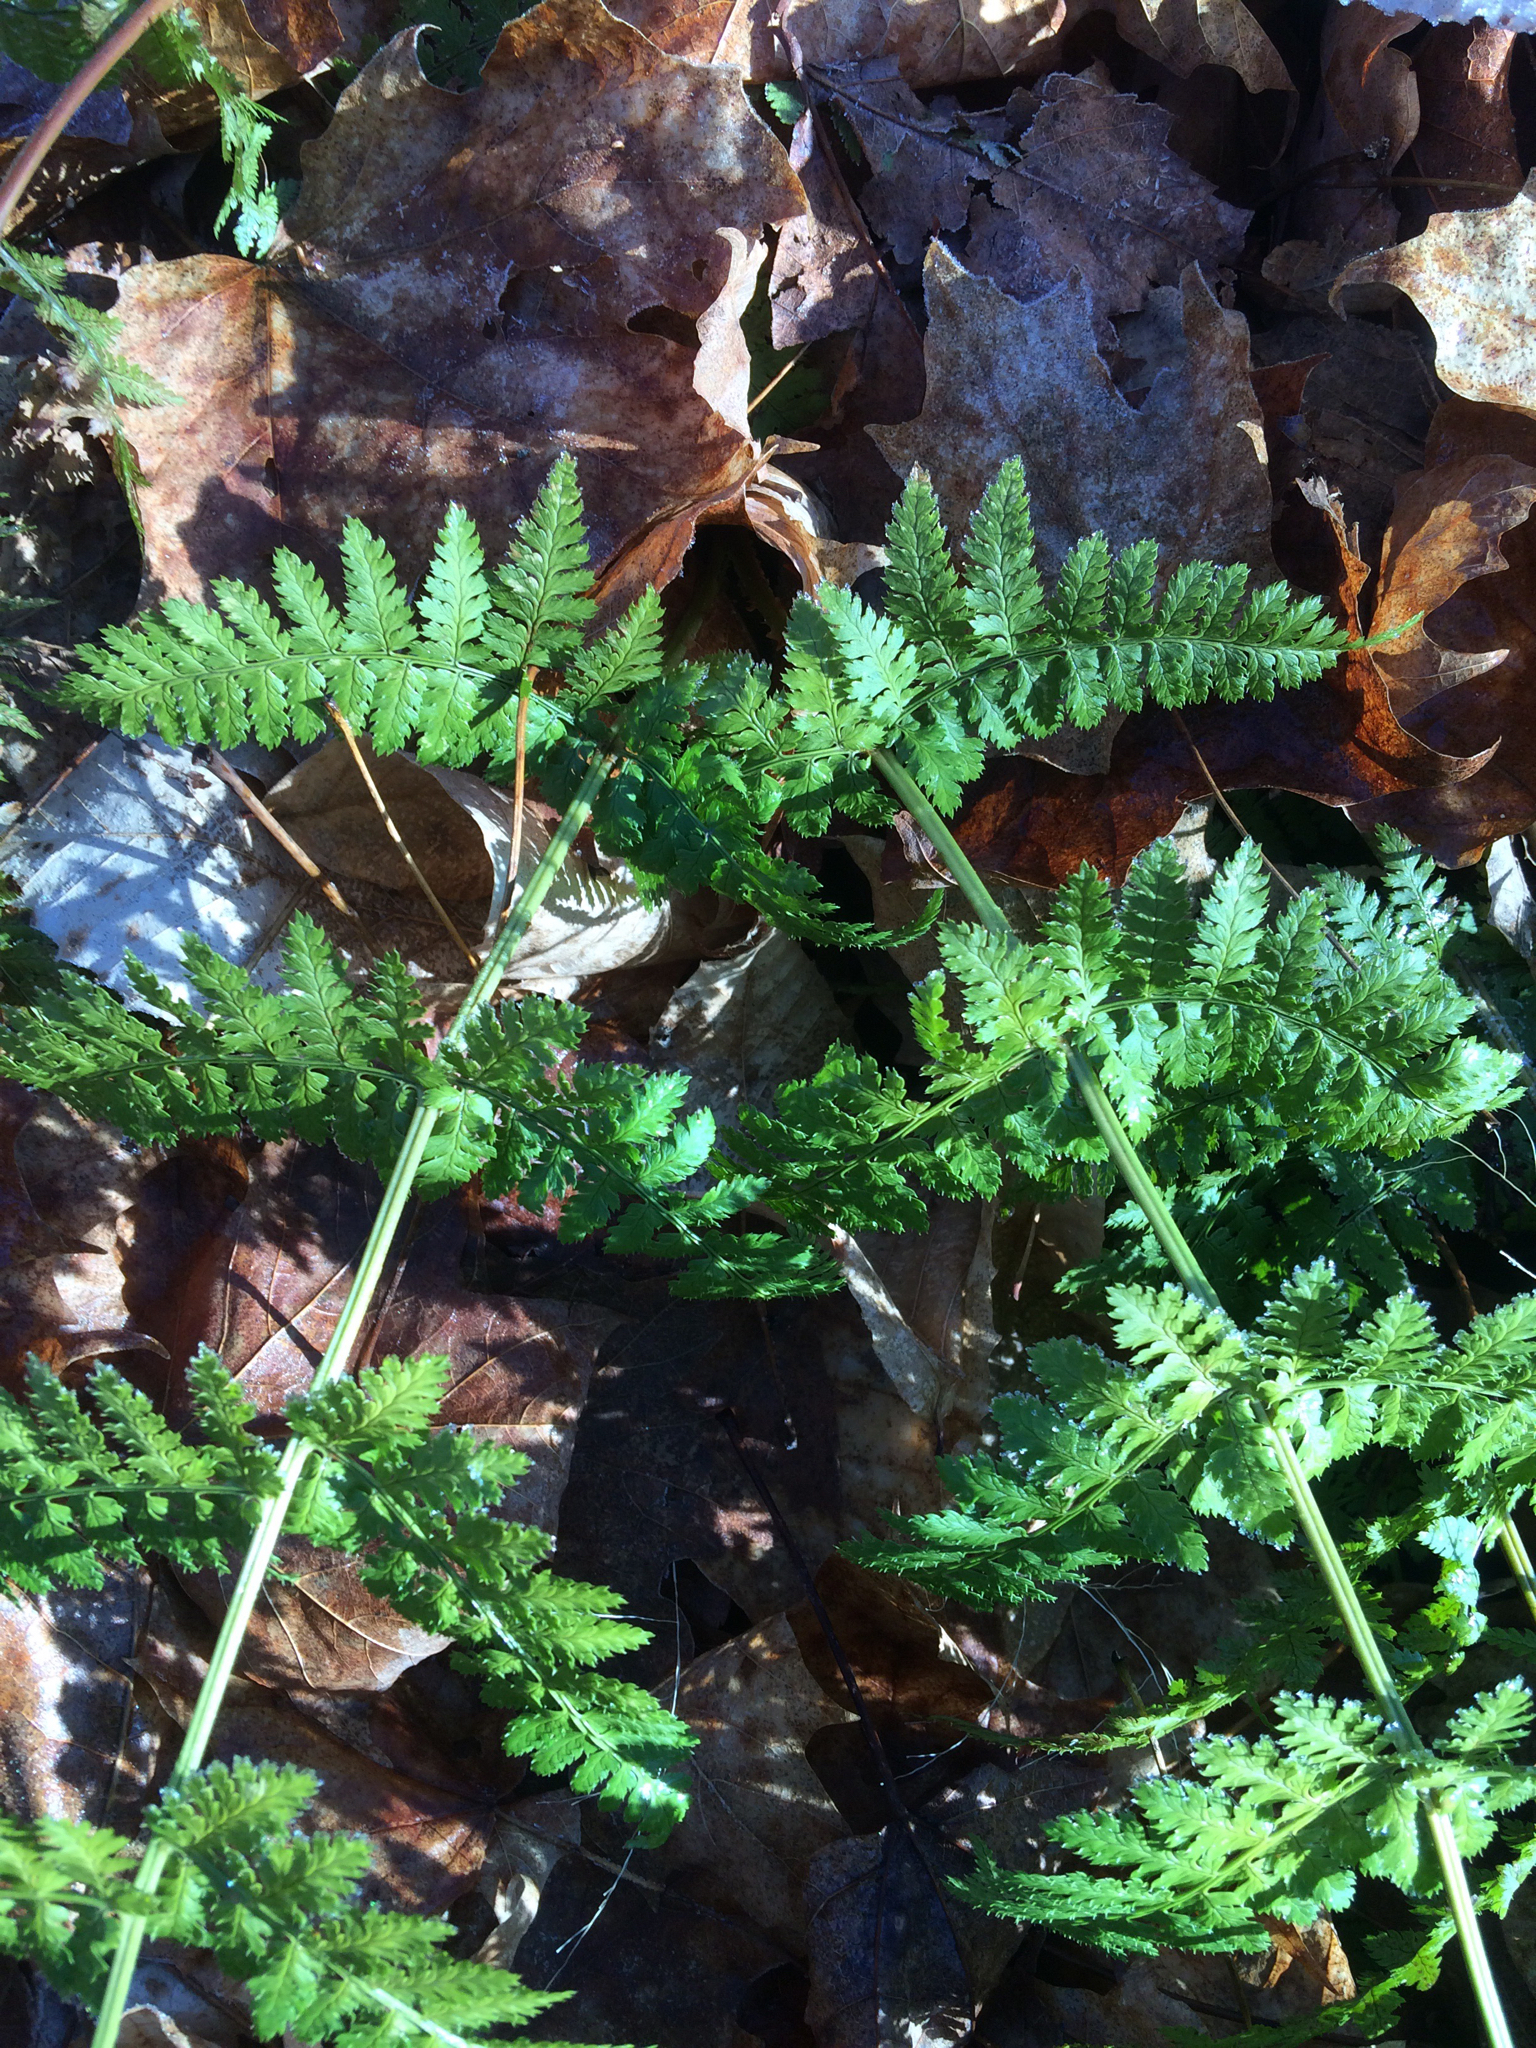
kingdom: Plantae
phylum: Tracheophyta
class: Polypodiopsida
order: Polypodiales
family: Dryopteridaceae
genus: Dryopteris
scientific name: Dryopteris intermedia
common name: Evergreen wood fern
